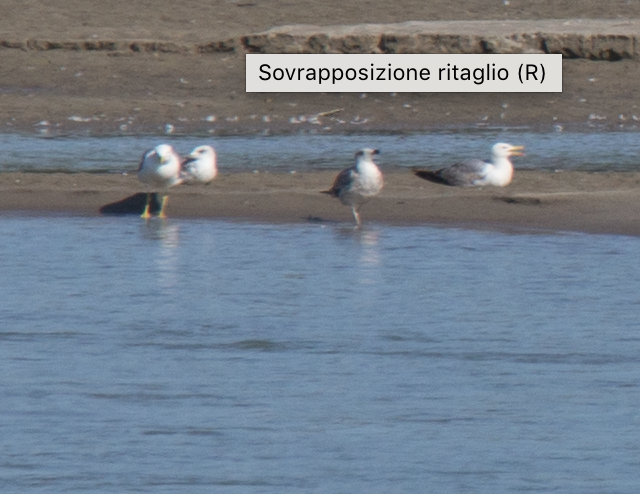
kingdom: Animalia
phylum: Chordata
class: Aves
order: Charadriiformes
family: Laridae
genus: Larus
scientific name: Larus michahellis
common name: Yellow-legged gull
